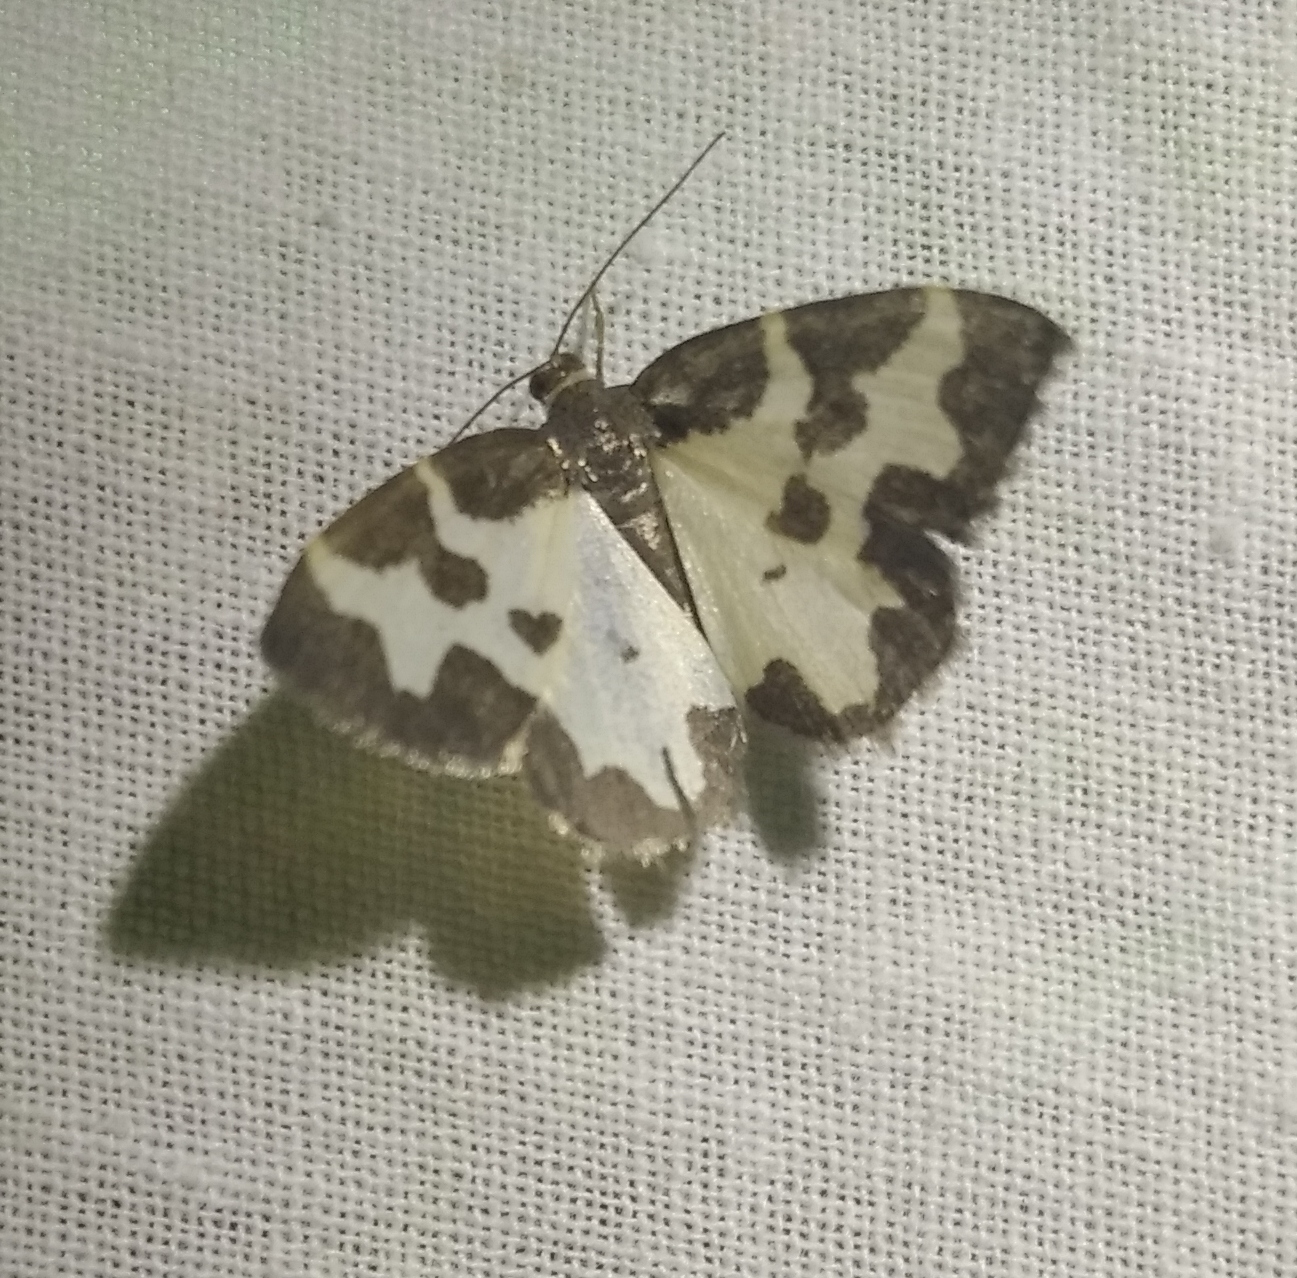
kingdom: Animalia
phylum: Arthropoda
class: Insecta
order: Lepidoptera
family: Geometridae
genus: Lomaspilis
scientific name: Lomaspilis marginata
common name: Clouded border
